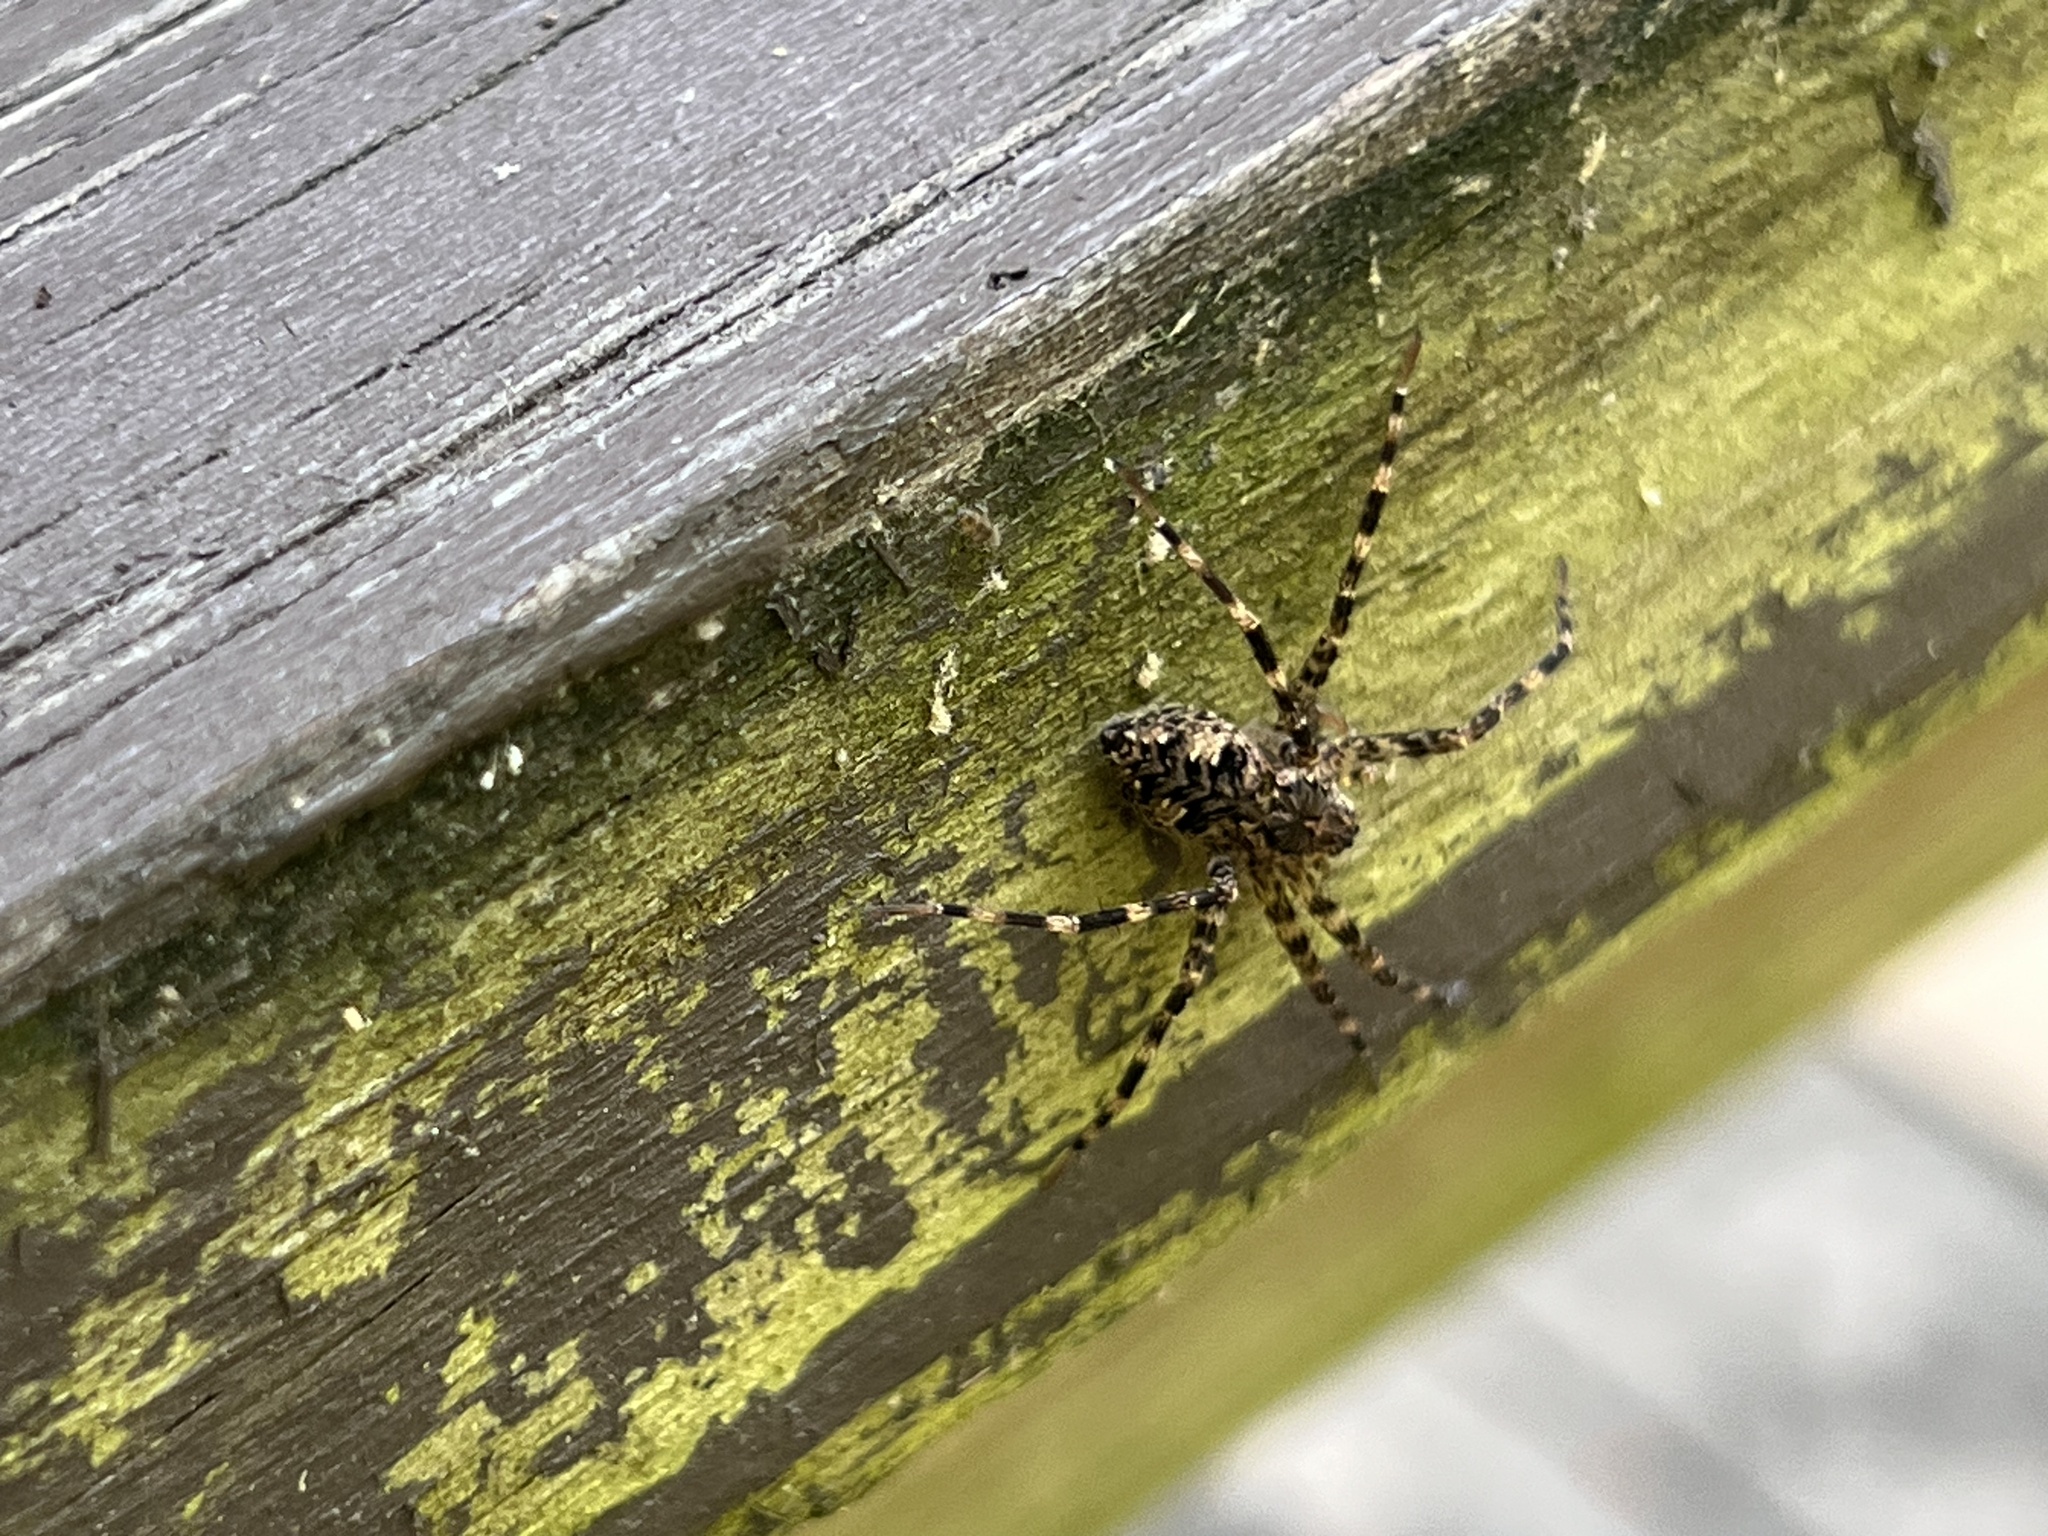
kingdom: Animalia
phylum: Arthropoda
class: Arachnida
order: Araneae
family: Pisauridae
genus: Dolomedes
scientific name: Dolomedes tenebrosus
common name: Dark fishing spider
